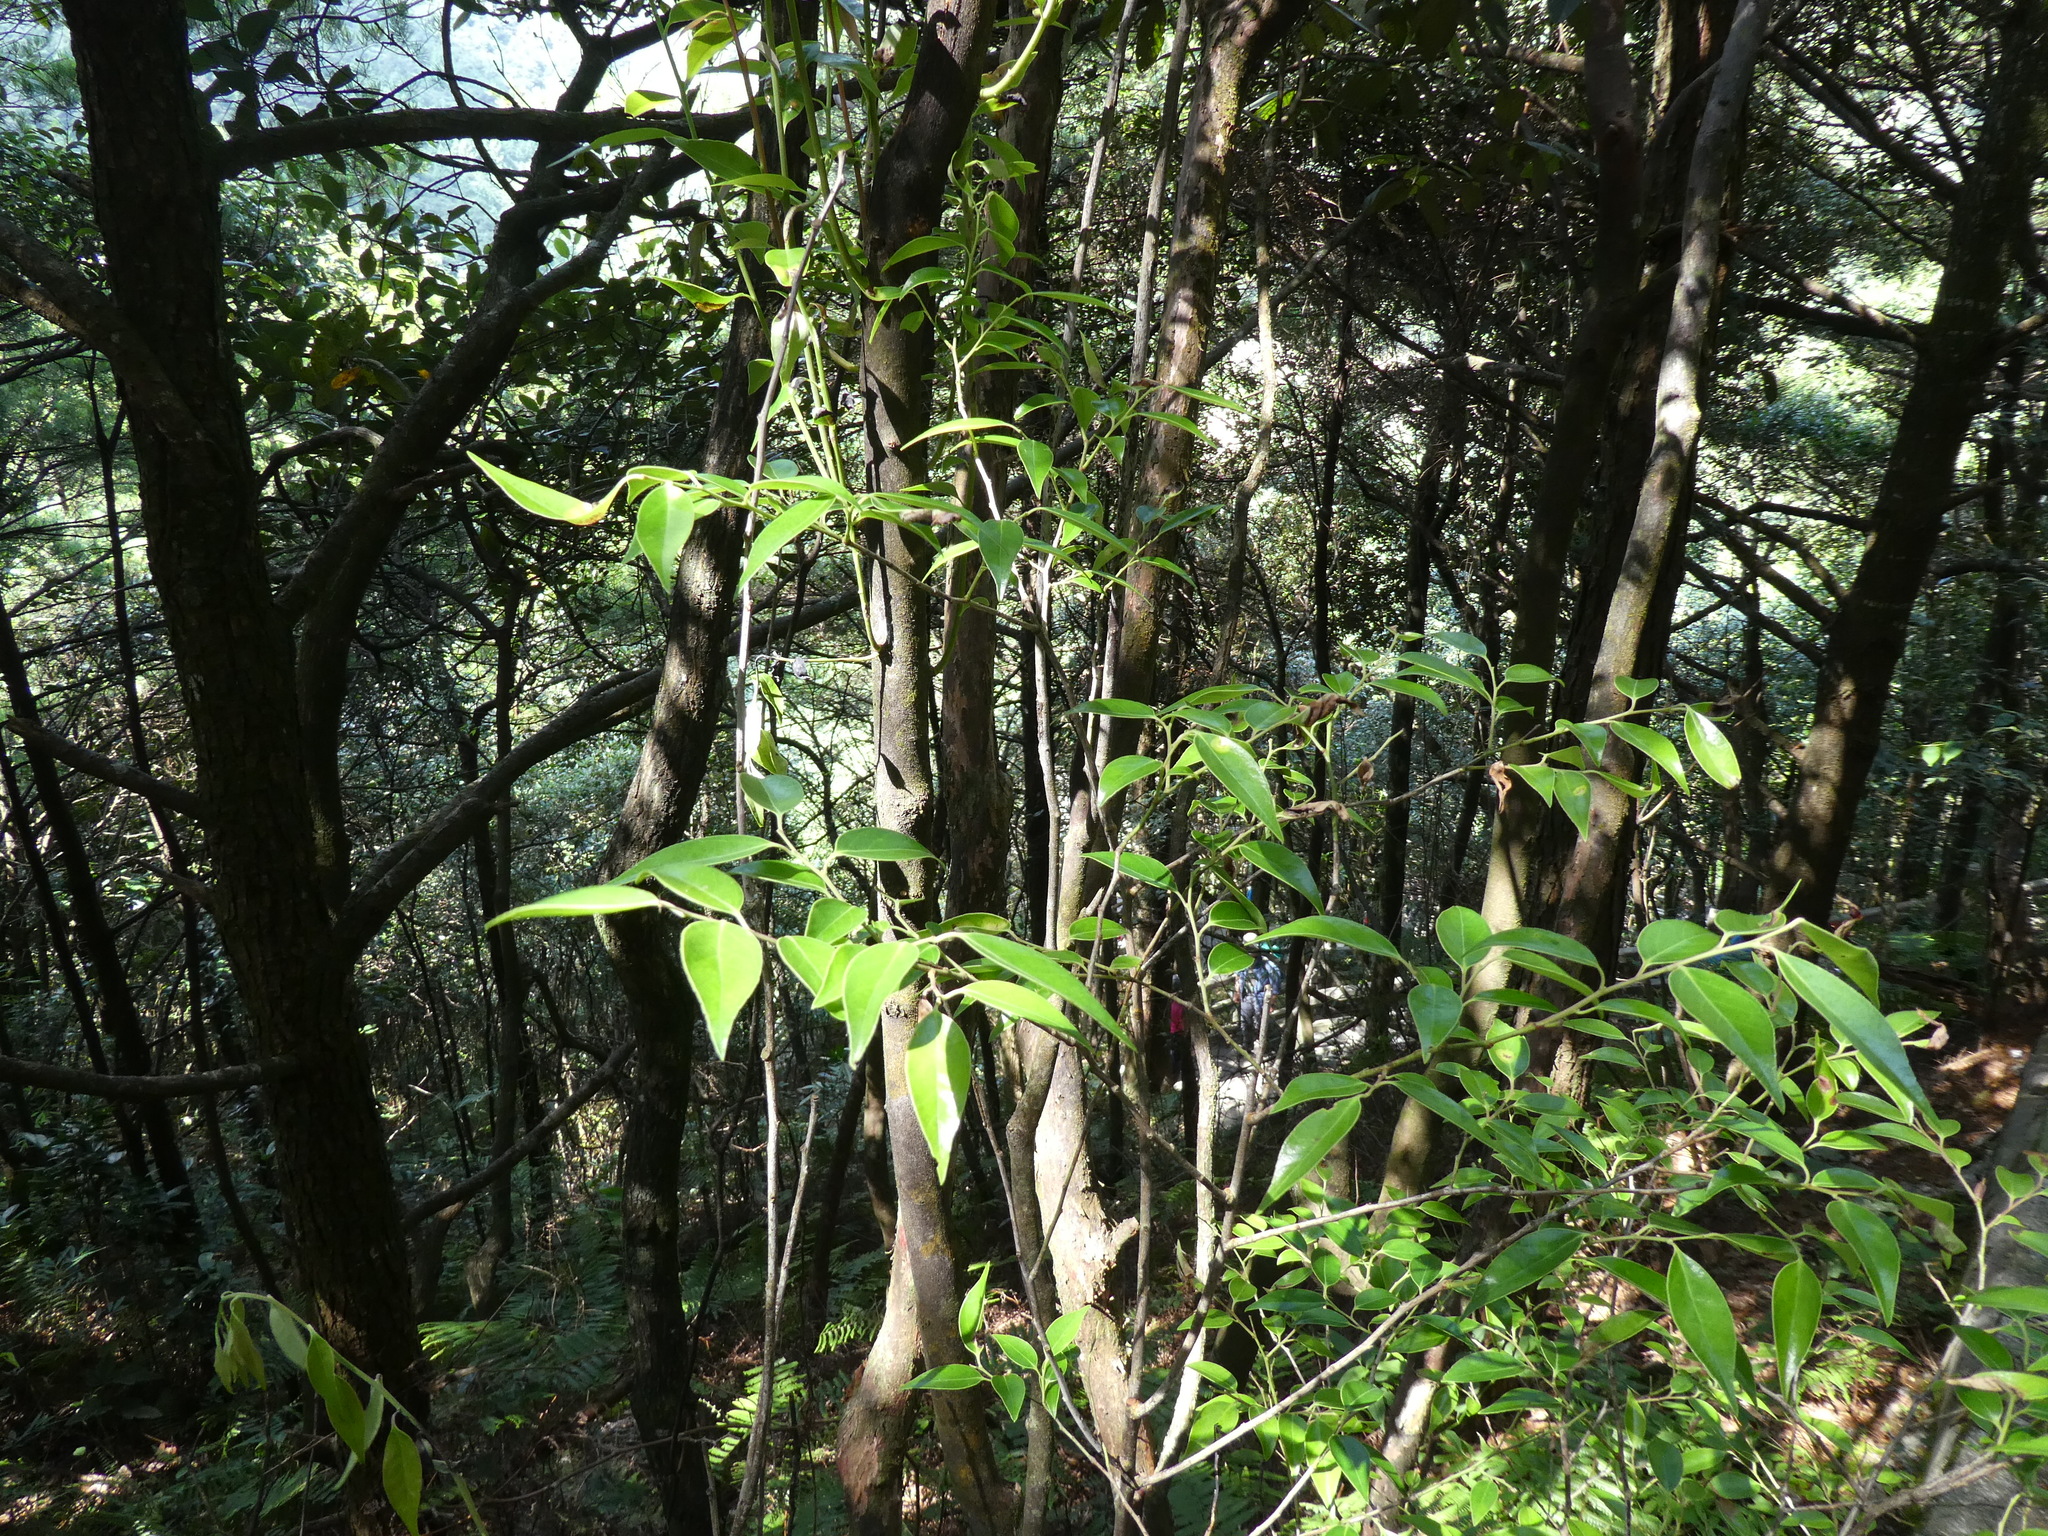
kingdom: Plantae
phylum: Tracheophyta
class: Magnoliopsida
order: Ericales
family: Ericaceae
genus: Vaccinium
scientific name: Vaccinium randaiensis
